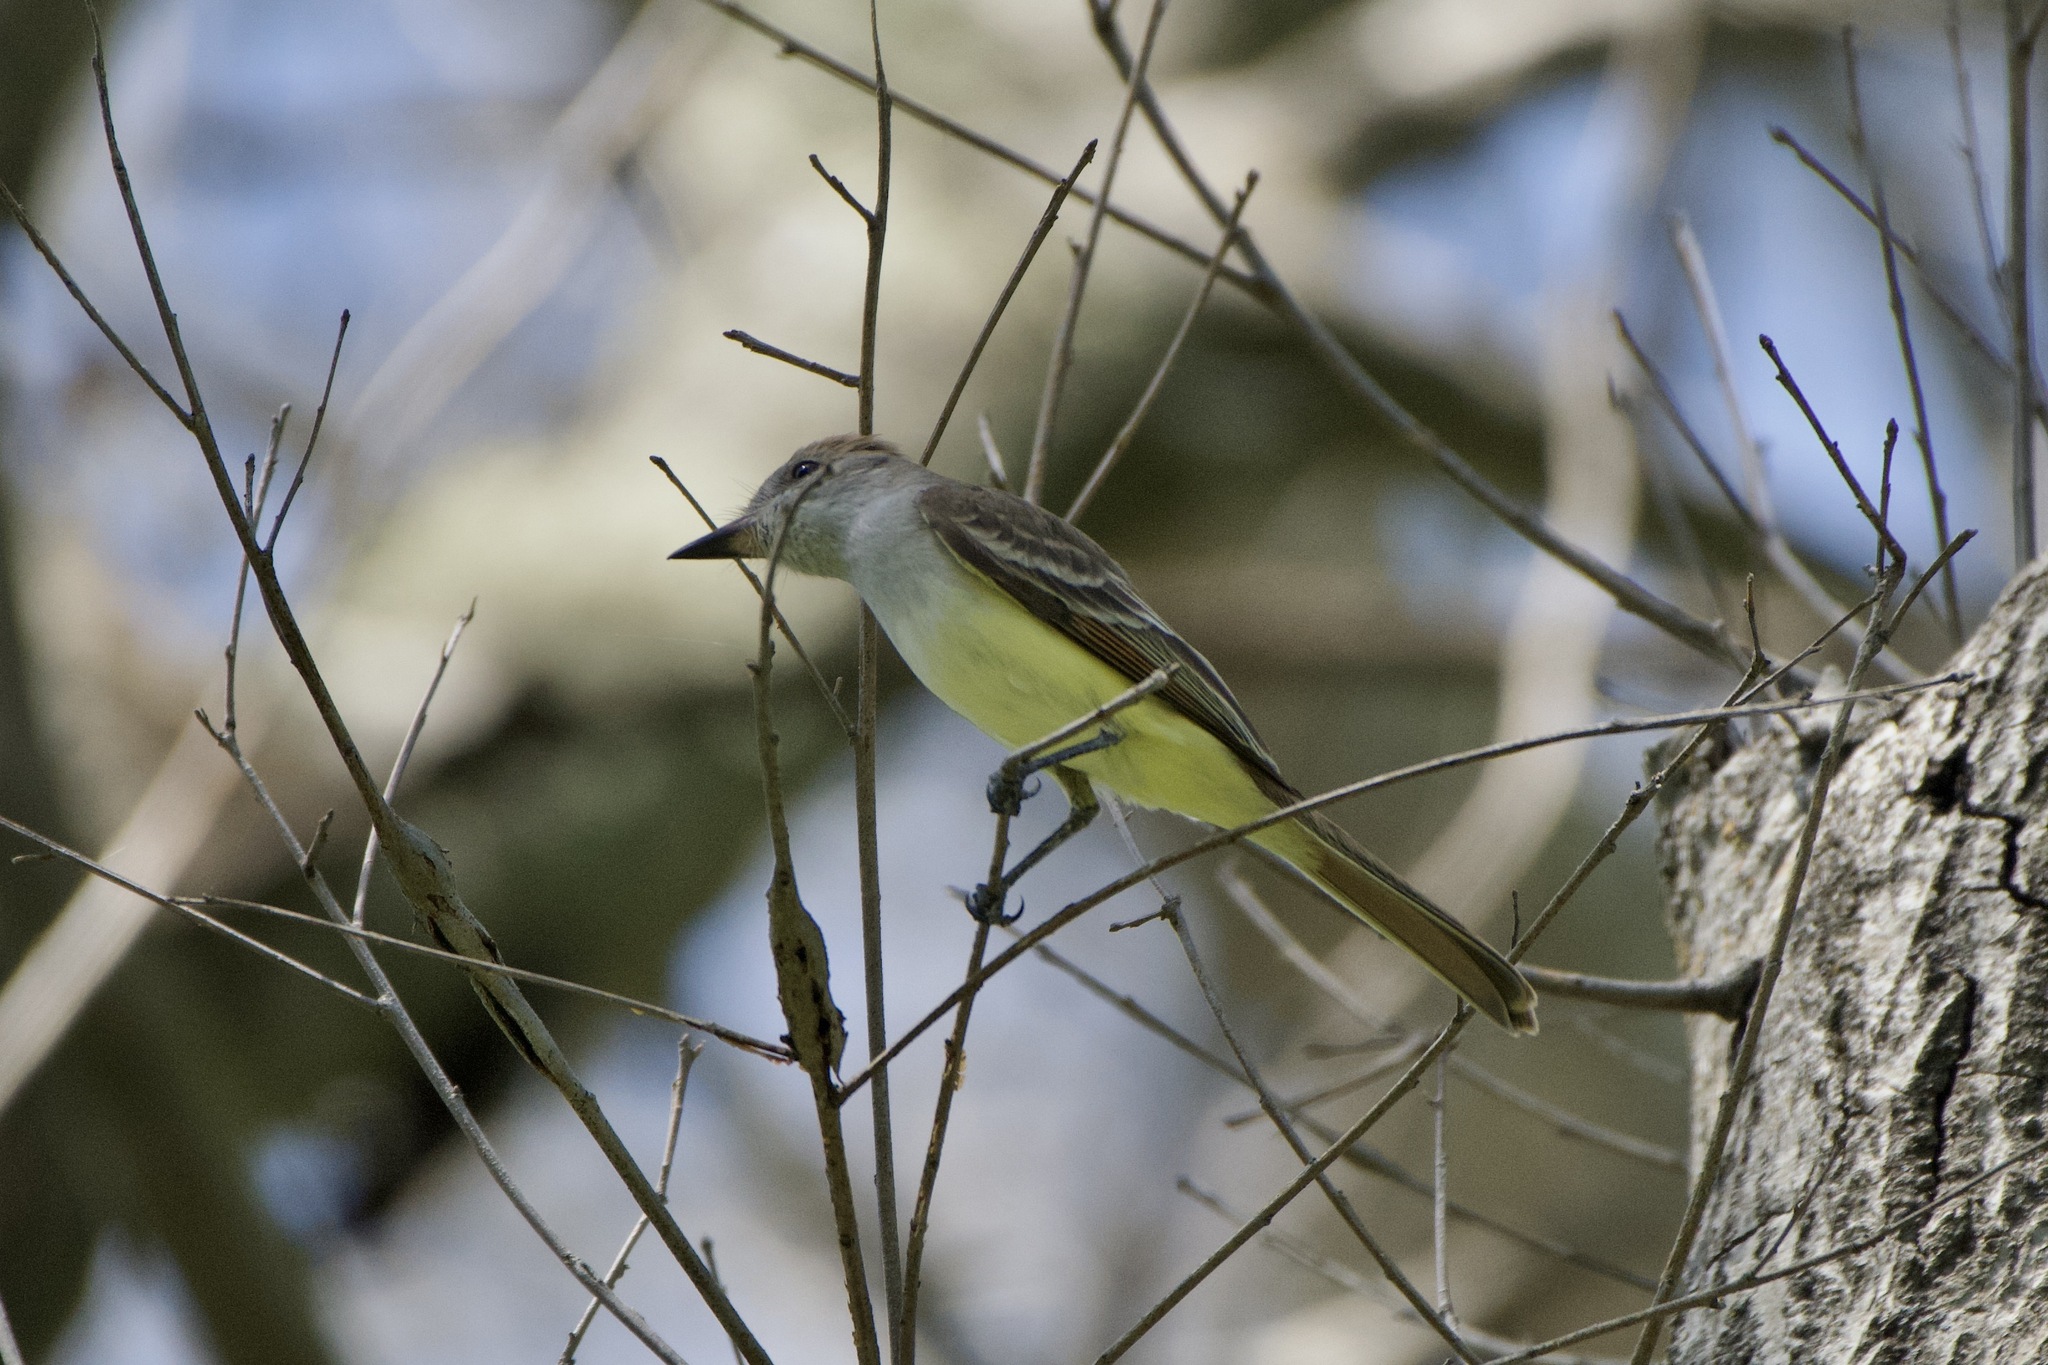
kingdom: Animalia
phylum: Chordata
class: Aves
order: Passeriformes
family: Tyrannidae
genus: Myiarchus
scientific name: Myiarchus cinerascens
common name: Ash-throated flycatcher
